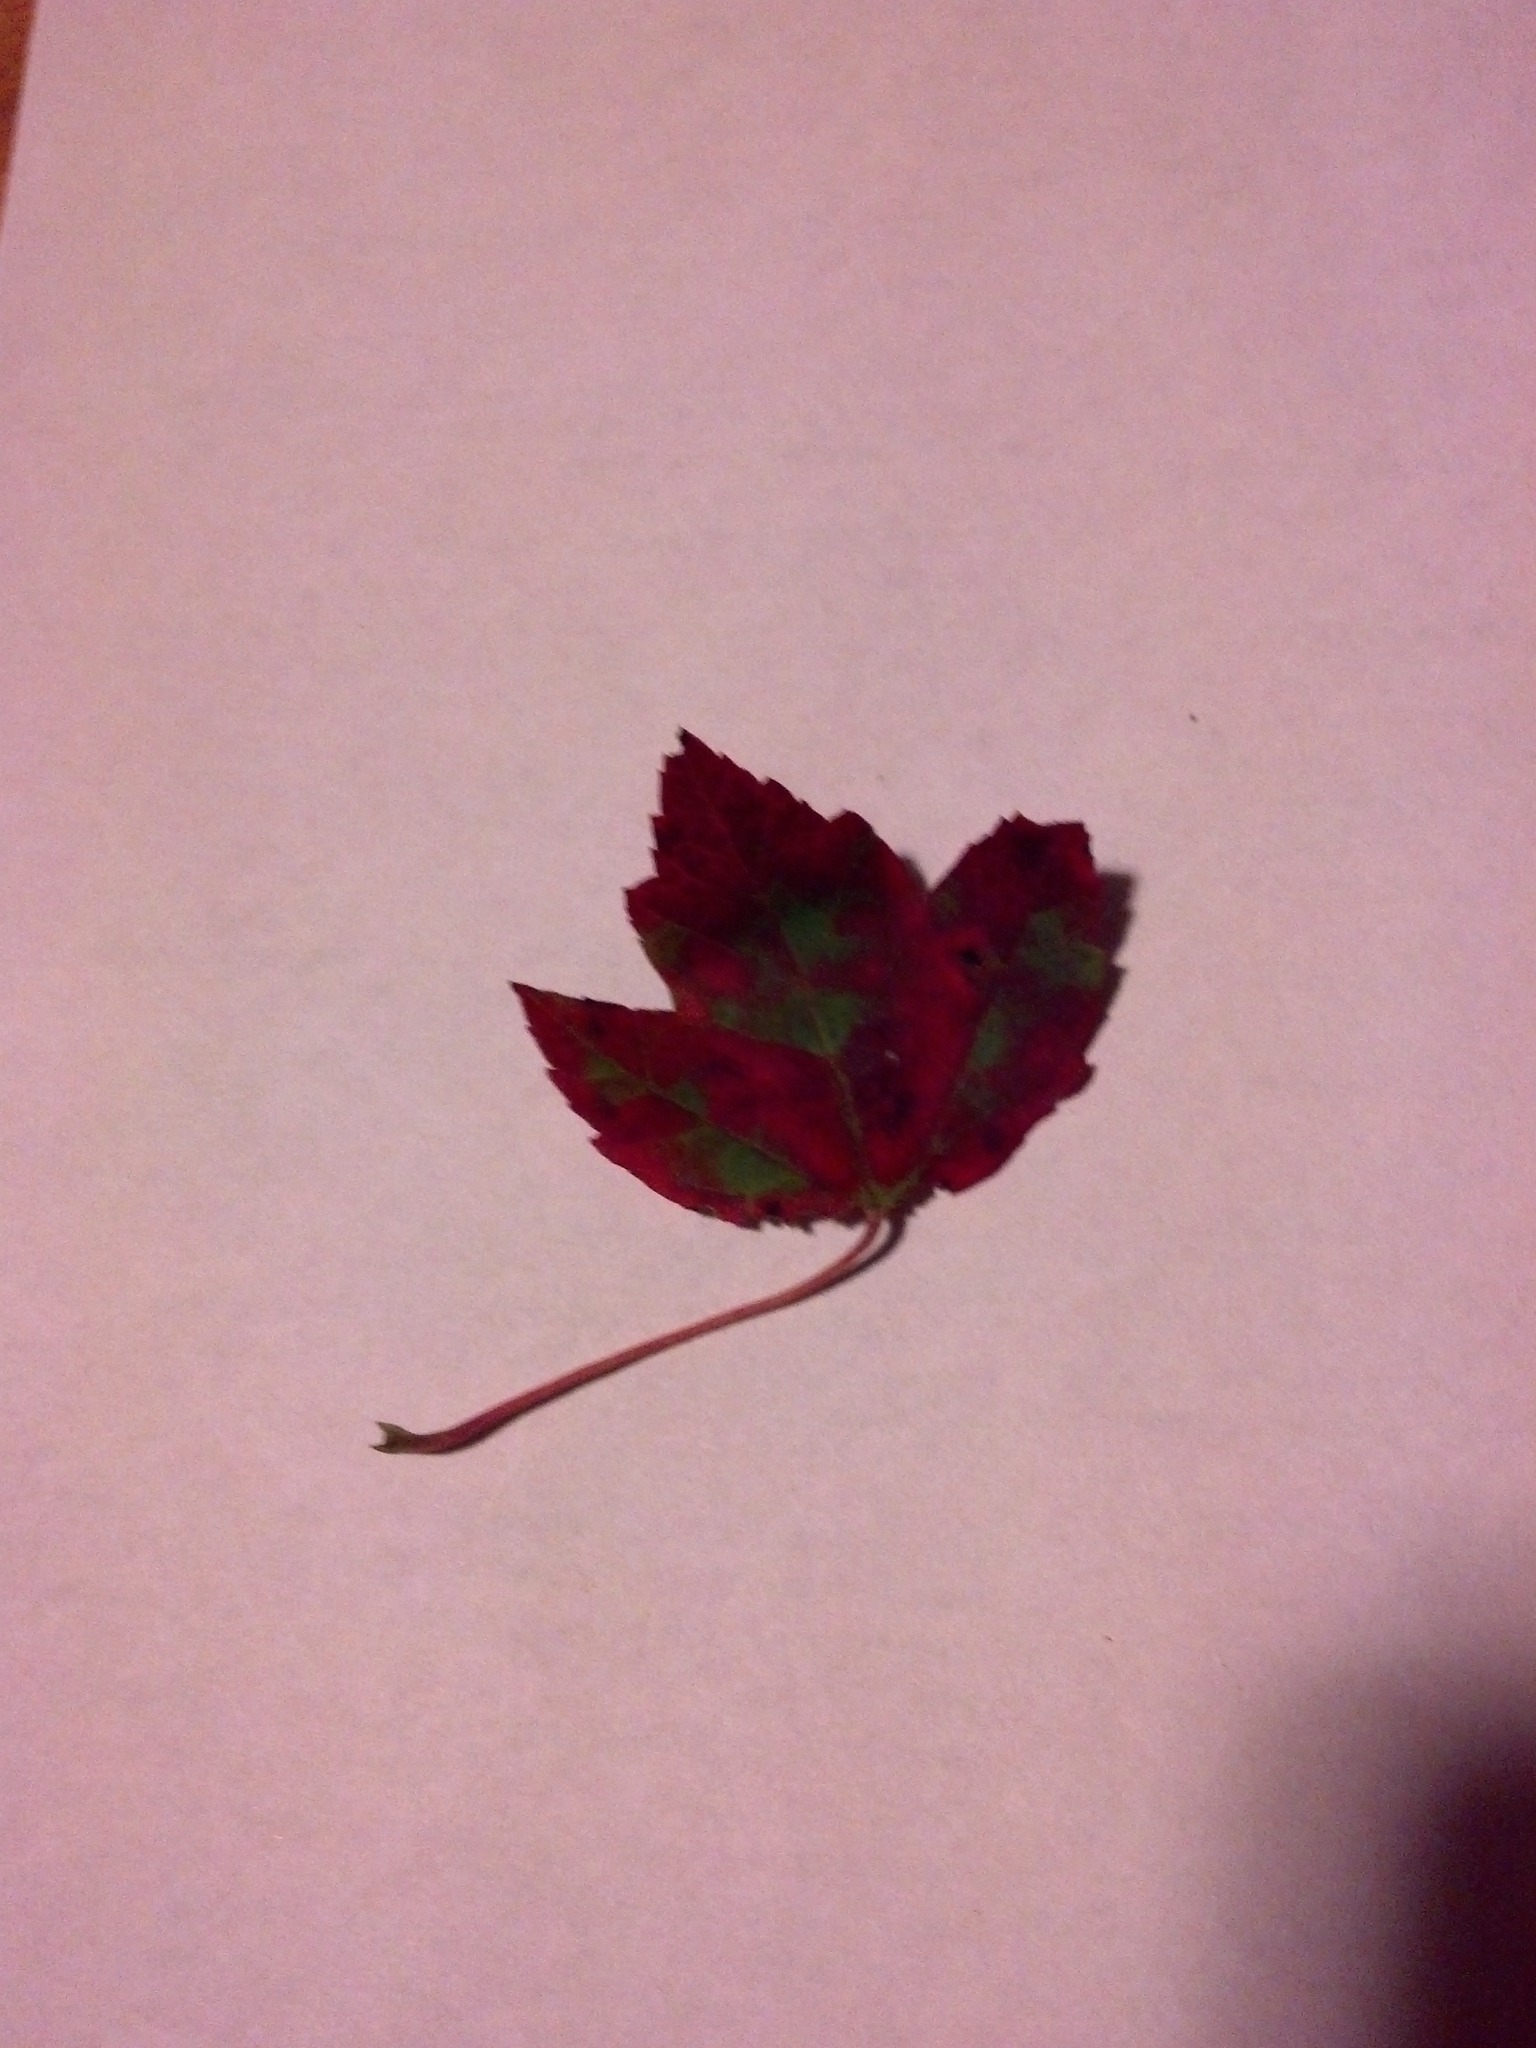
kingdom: Plantae
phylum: Tracheophyta
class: Magnoliopsida
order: Sapindales
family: Sapindaceae
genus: Acer
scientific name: Acer rubrum
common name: Red maple
